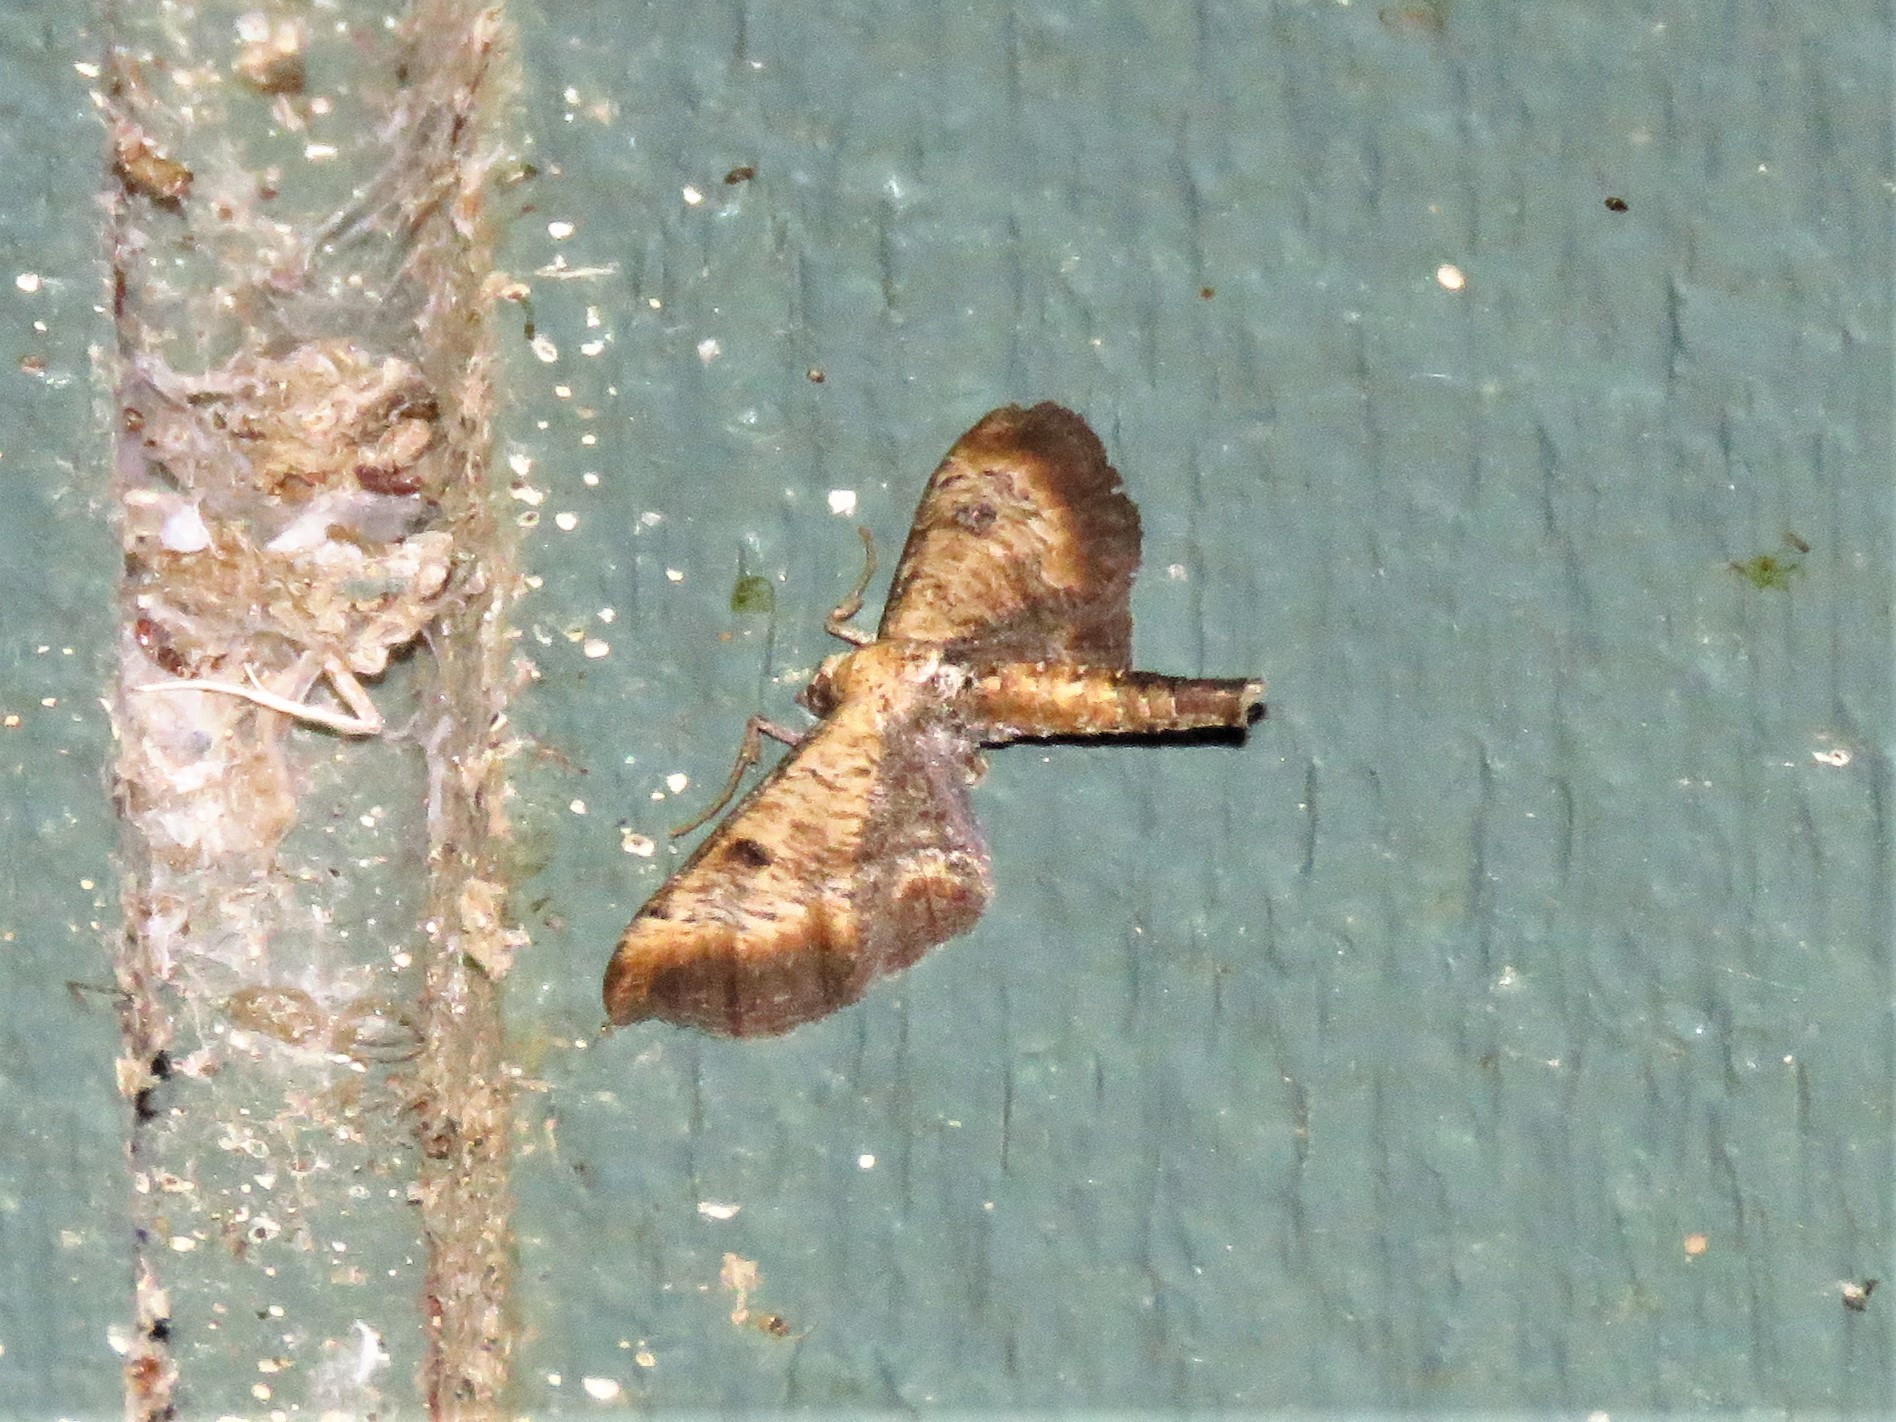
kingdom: Animalia
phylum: Arthropoda
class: Insecta
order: Lepidoptera
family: Geometridae
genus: Tornos
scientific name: Tornos scolopacinaria
